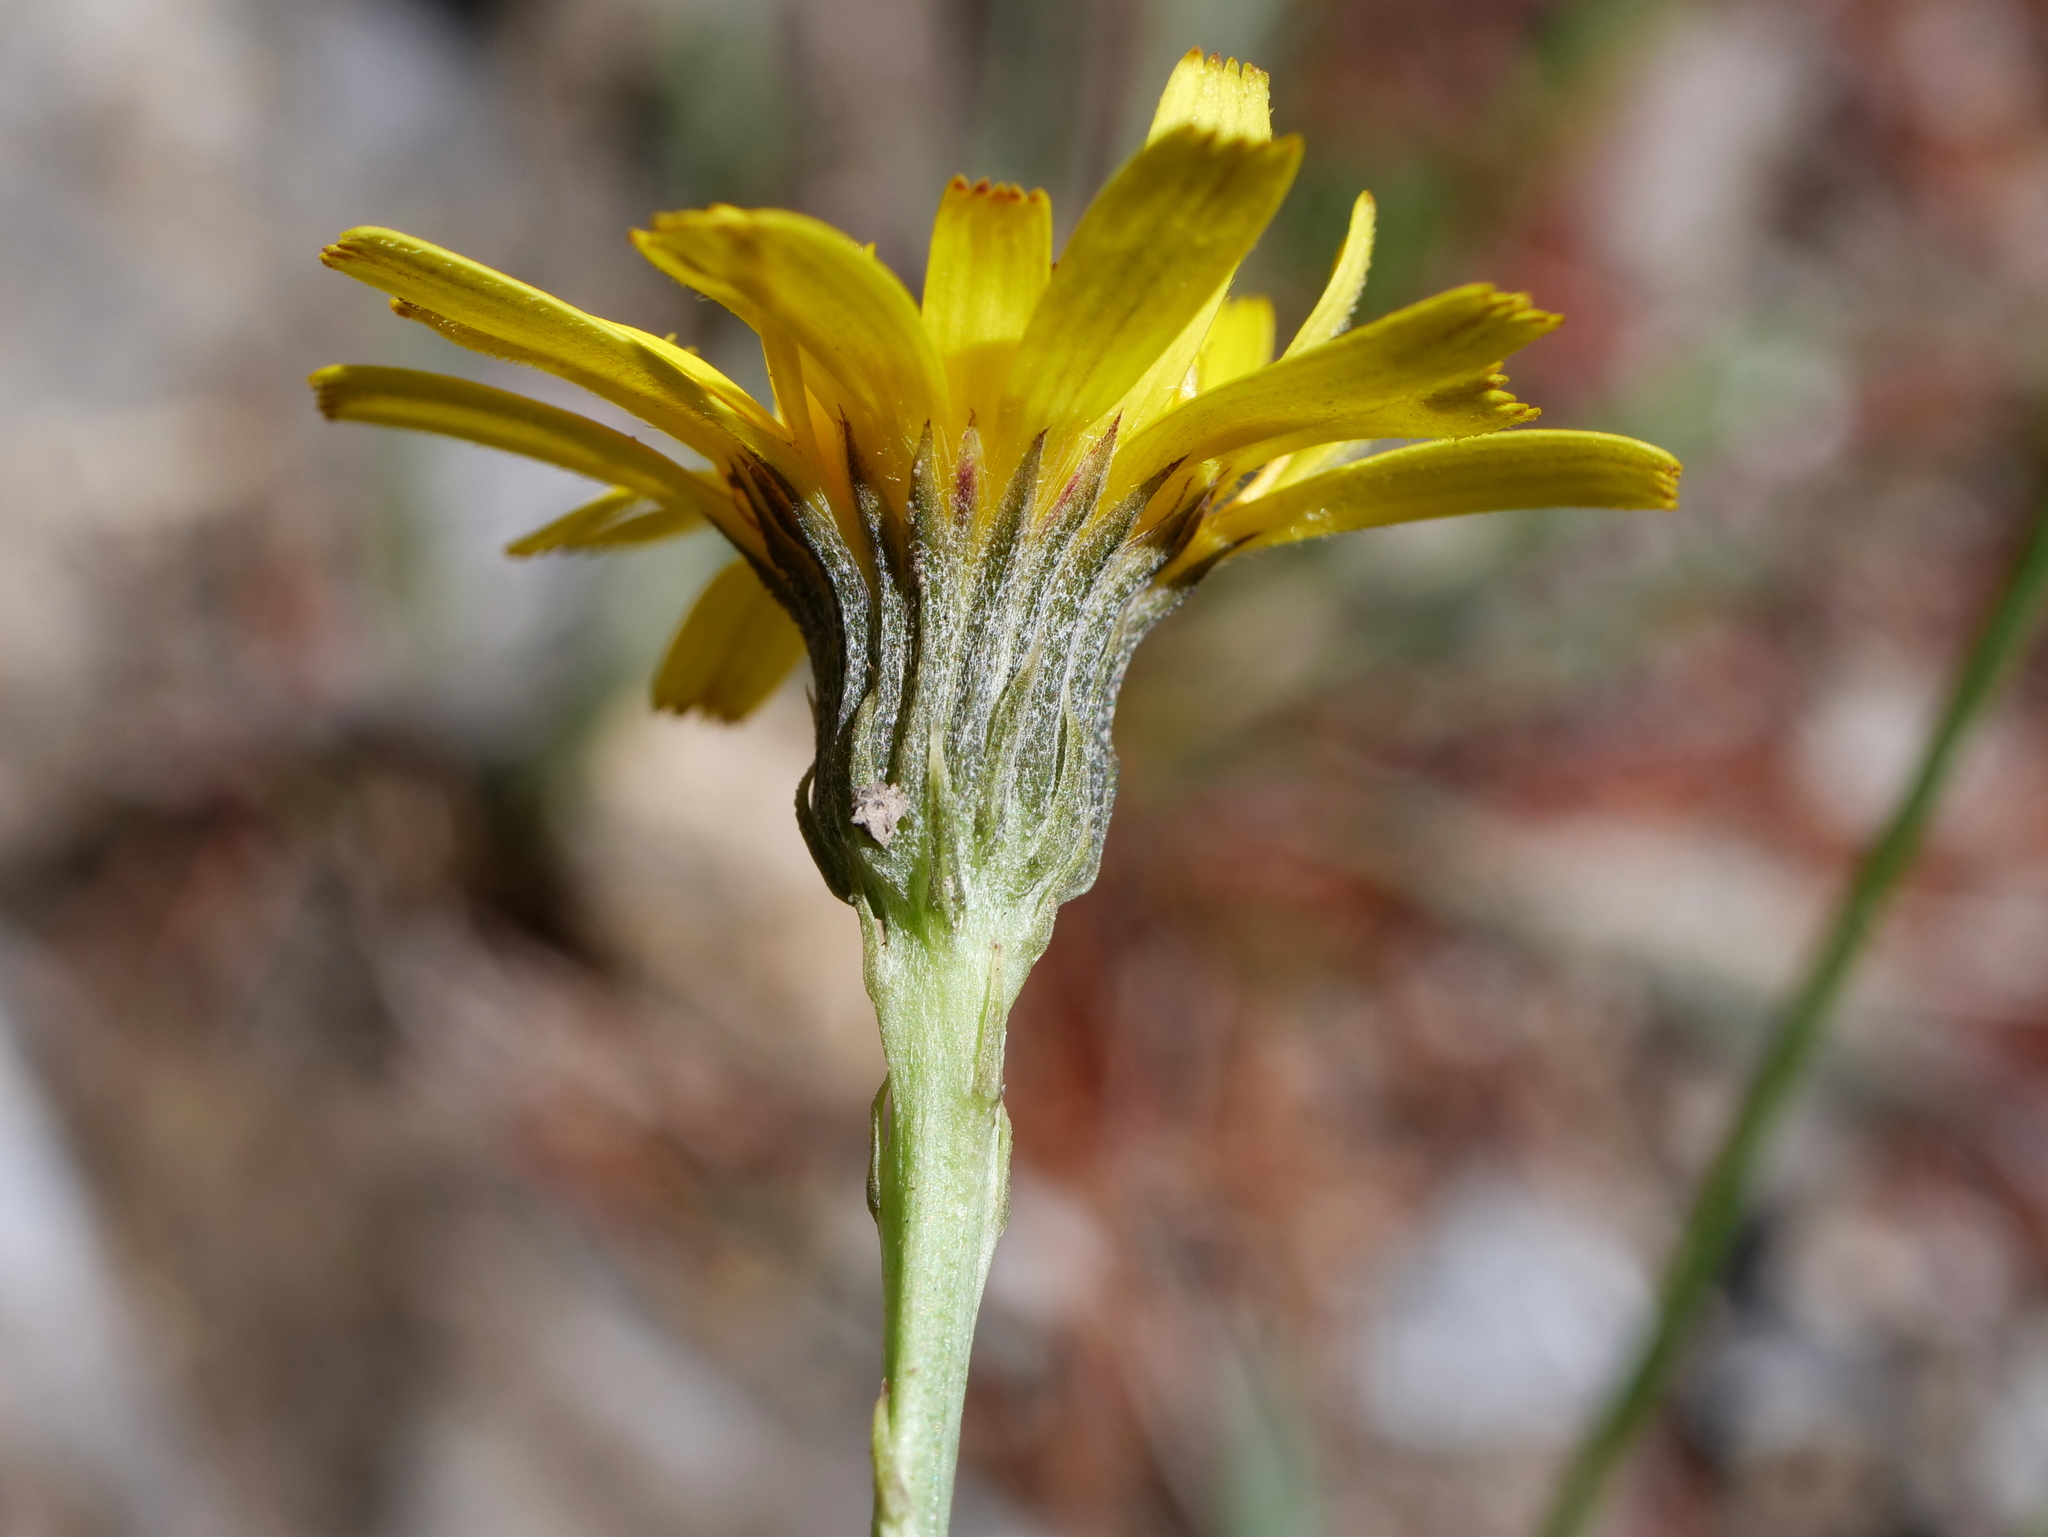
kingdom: Plantae
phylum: Tracheophyta
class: Magnoliopsida
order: Asterales
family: Asteraceae
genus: Tolpis
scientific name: Tolpis staticifolia
